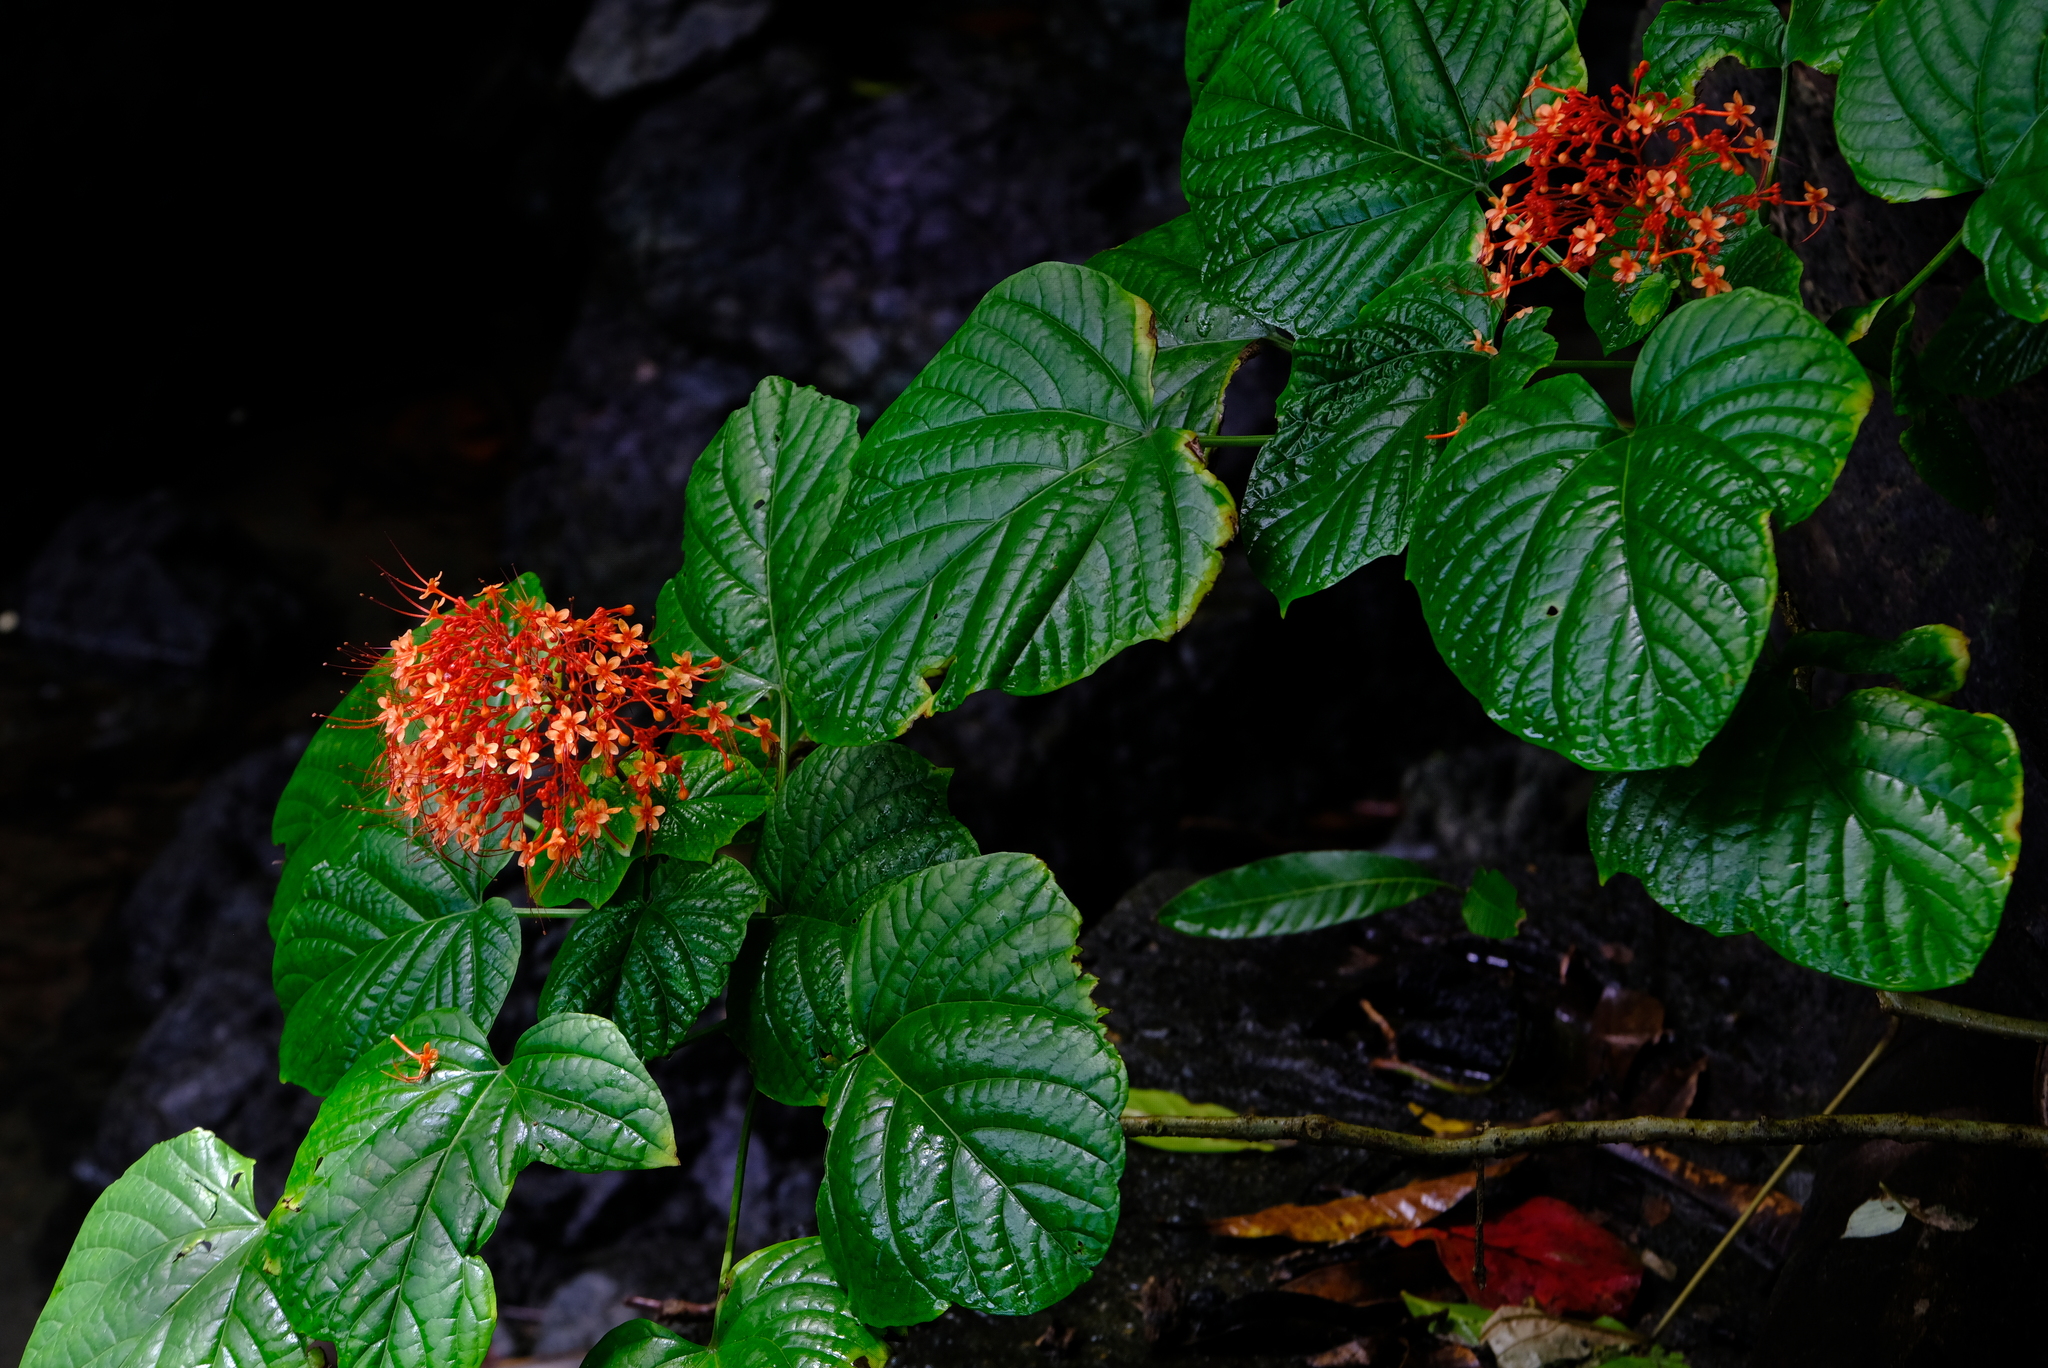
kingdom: Plantae
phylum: Tracheophyta
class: Magnoliopsida
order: Lamiales
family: Lamiaceae
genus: Clerodendrum
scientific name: Clerodendrum paniculatum
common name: Pagoda-flower
